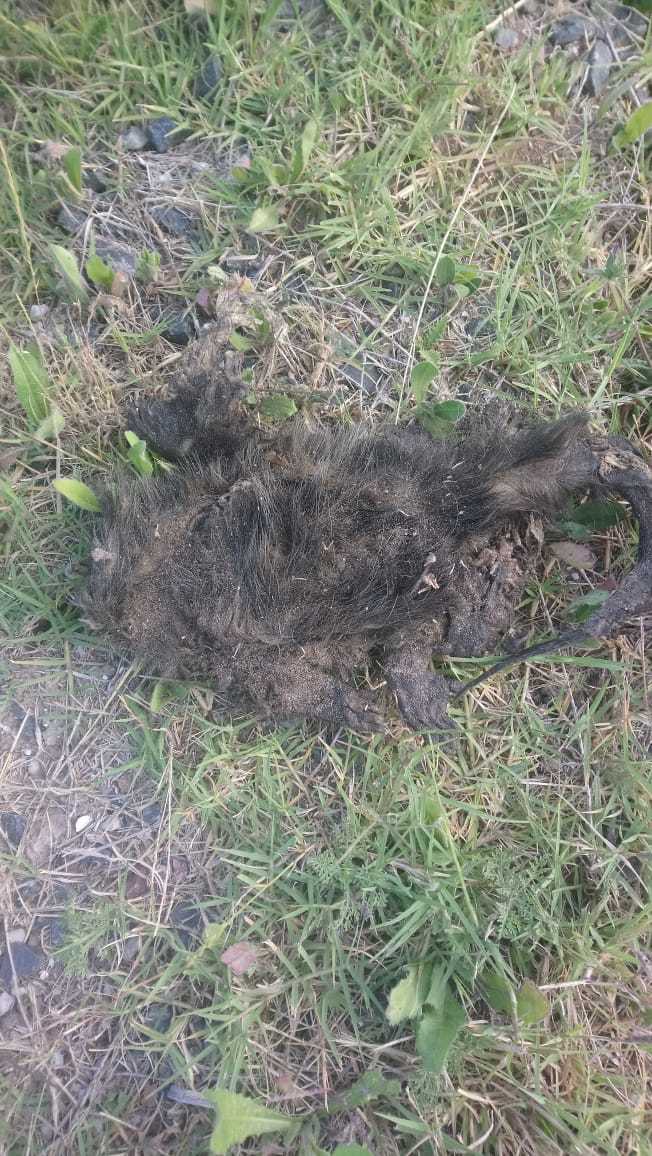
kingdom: Animalia
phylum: Chordata
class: Mammalia
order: Didelphimorphia
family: Didelphidae
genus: Didelphis
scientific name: Didelphis albiventris
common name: White-eared opossum
